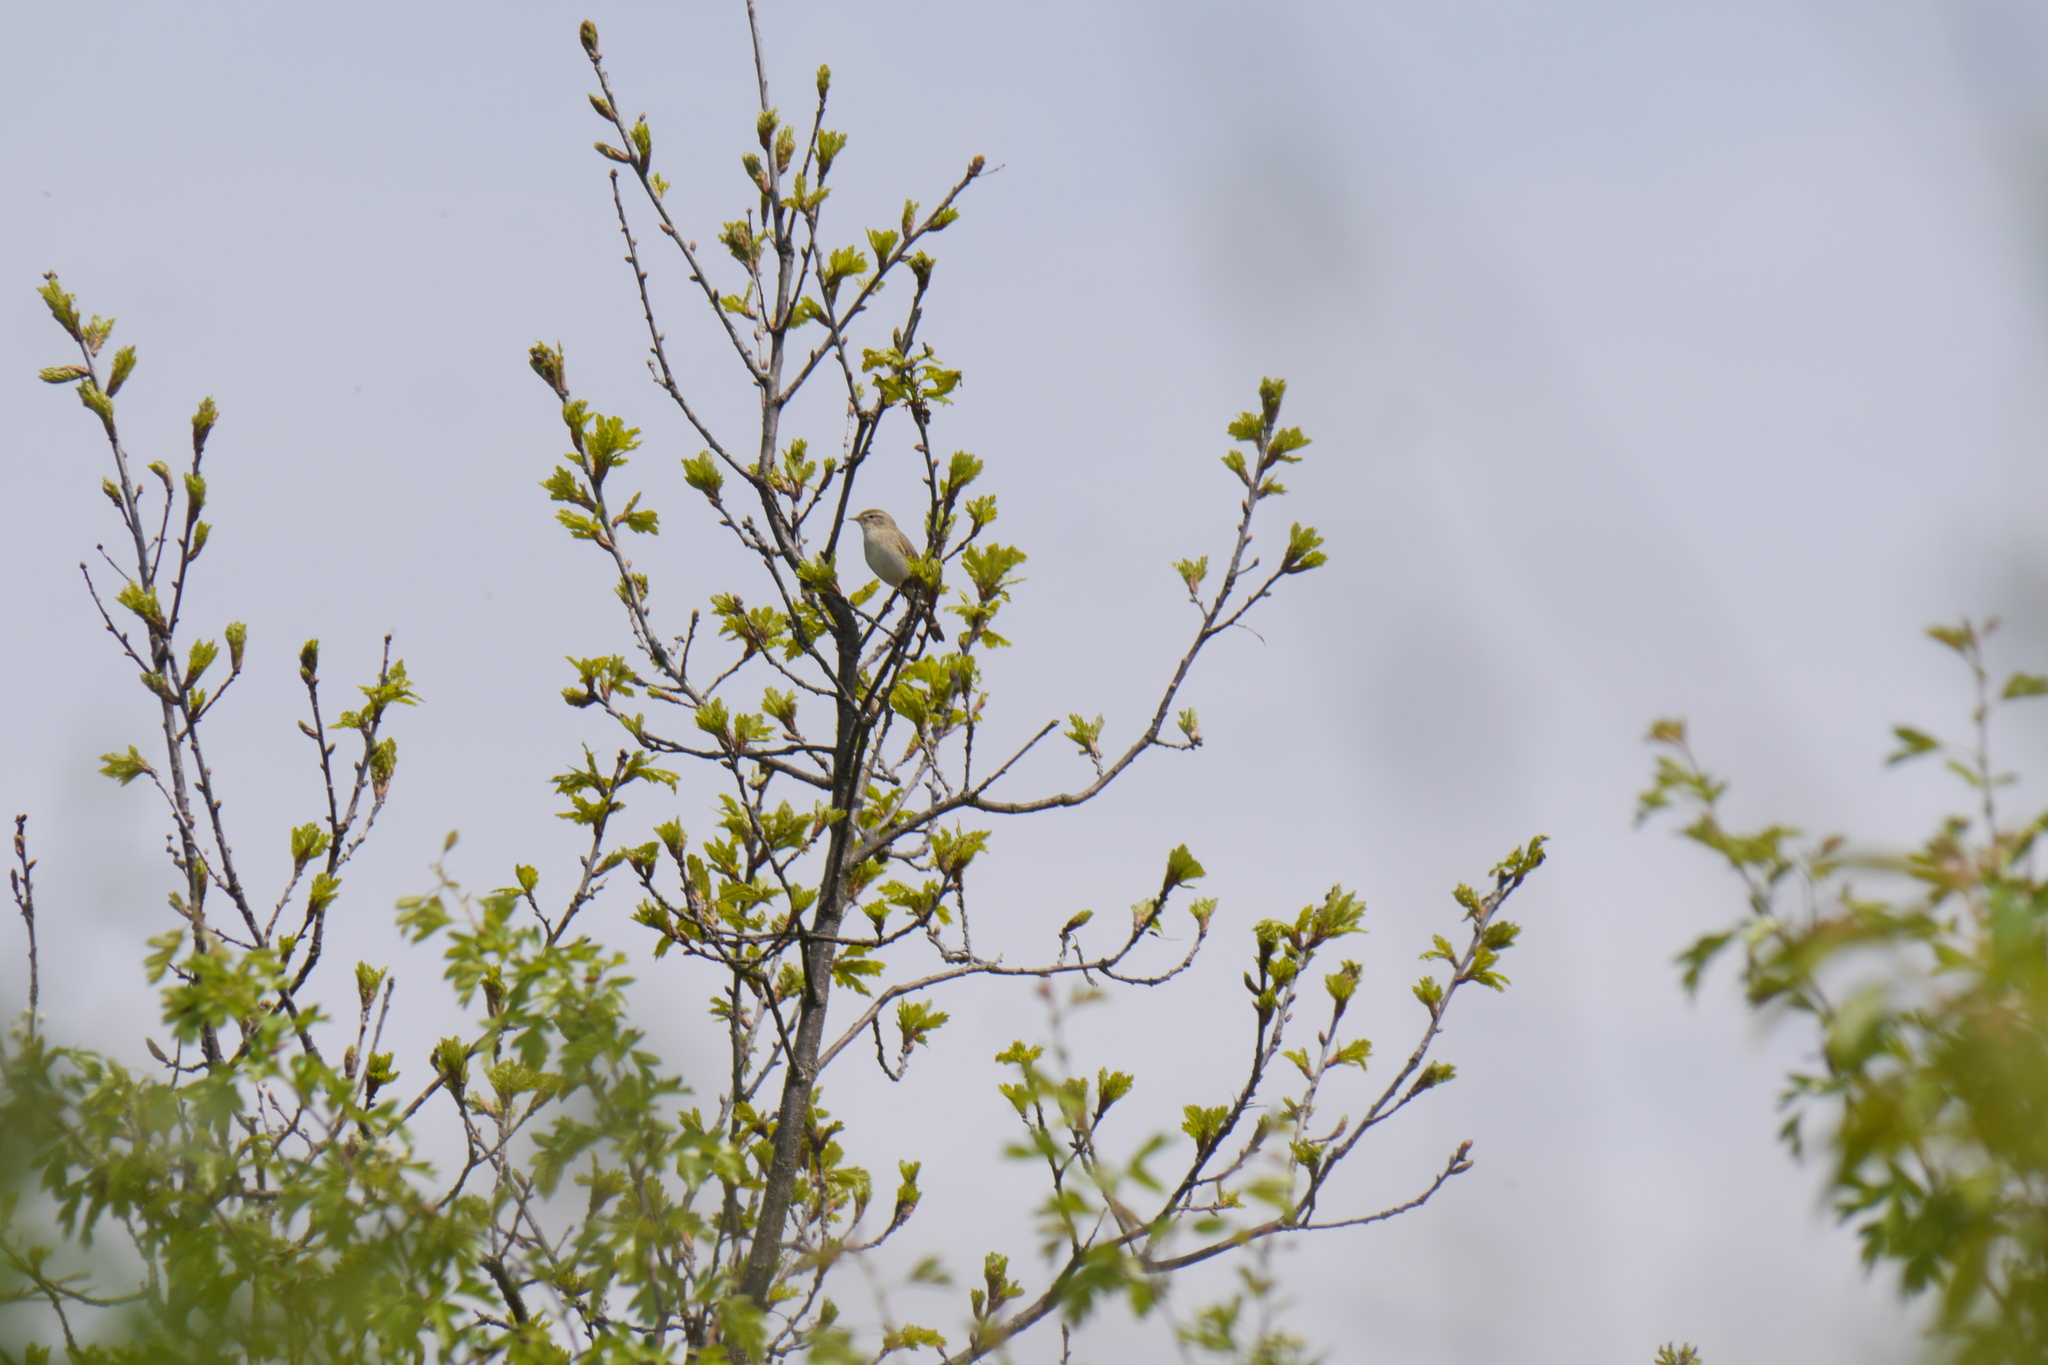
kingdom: Animalia
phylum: Chordata
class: Aves
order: Passeriformes
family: Phylloscopidae
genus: Phylloscopus
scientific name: Phylloscopus trochilus
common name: Willow warbler
